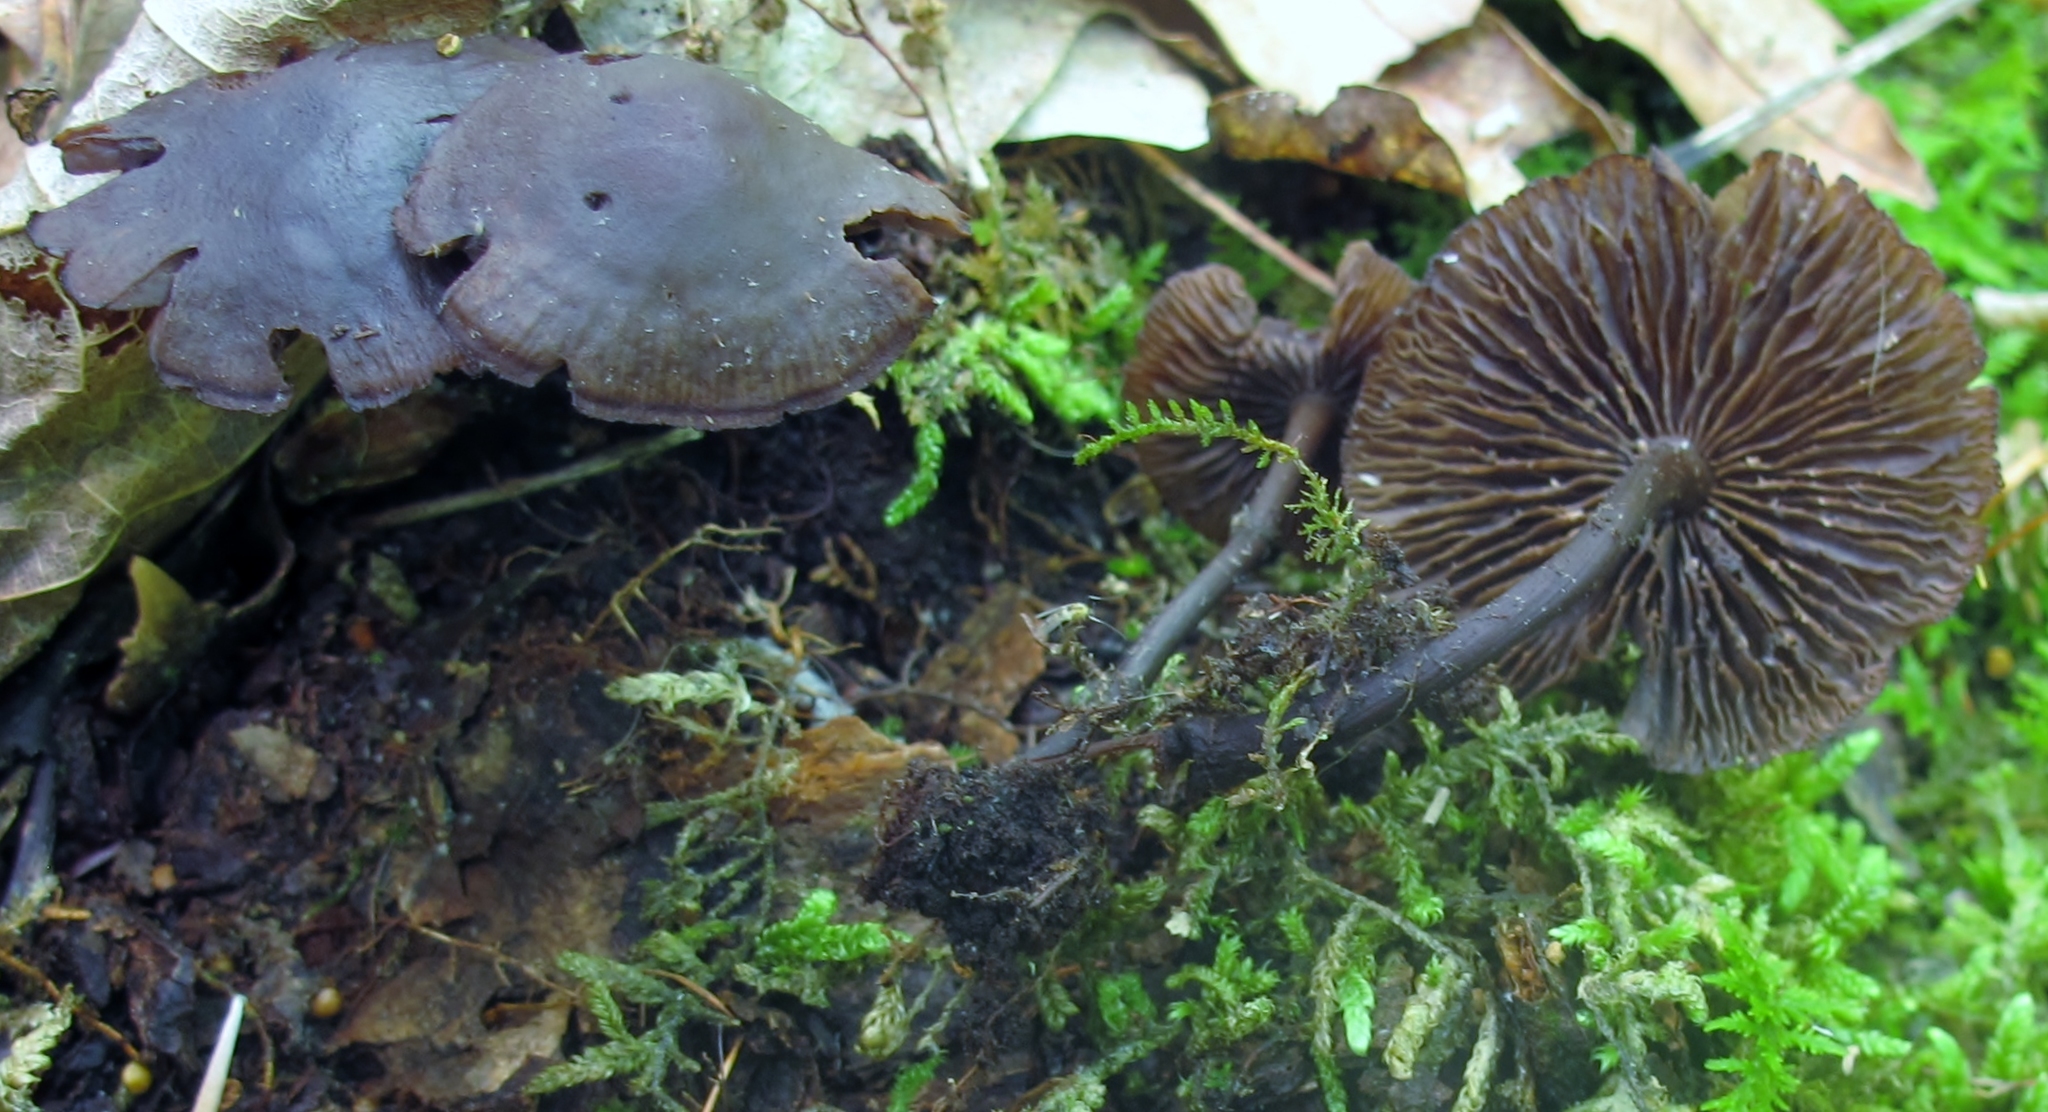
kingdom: Fungi
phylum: Basidiomycota
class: Agaricomycetes
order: Agaricales
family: Omphalotaceae
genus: Gymnopus
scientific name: Gymnopus alkalivirens
